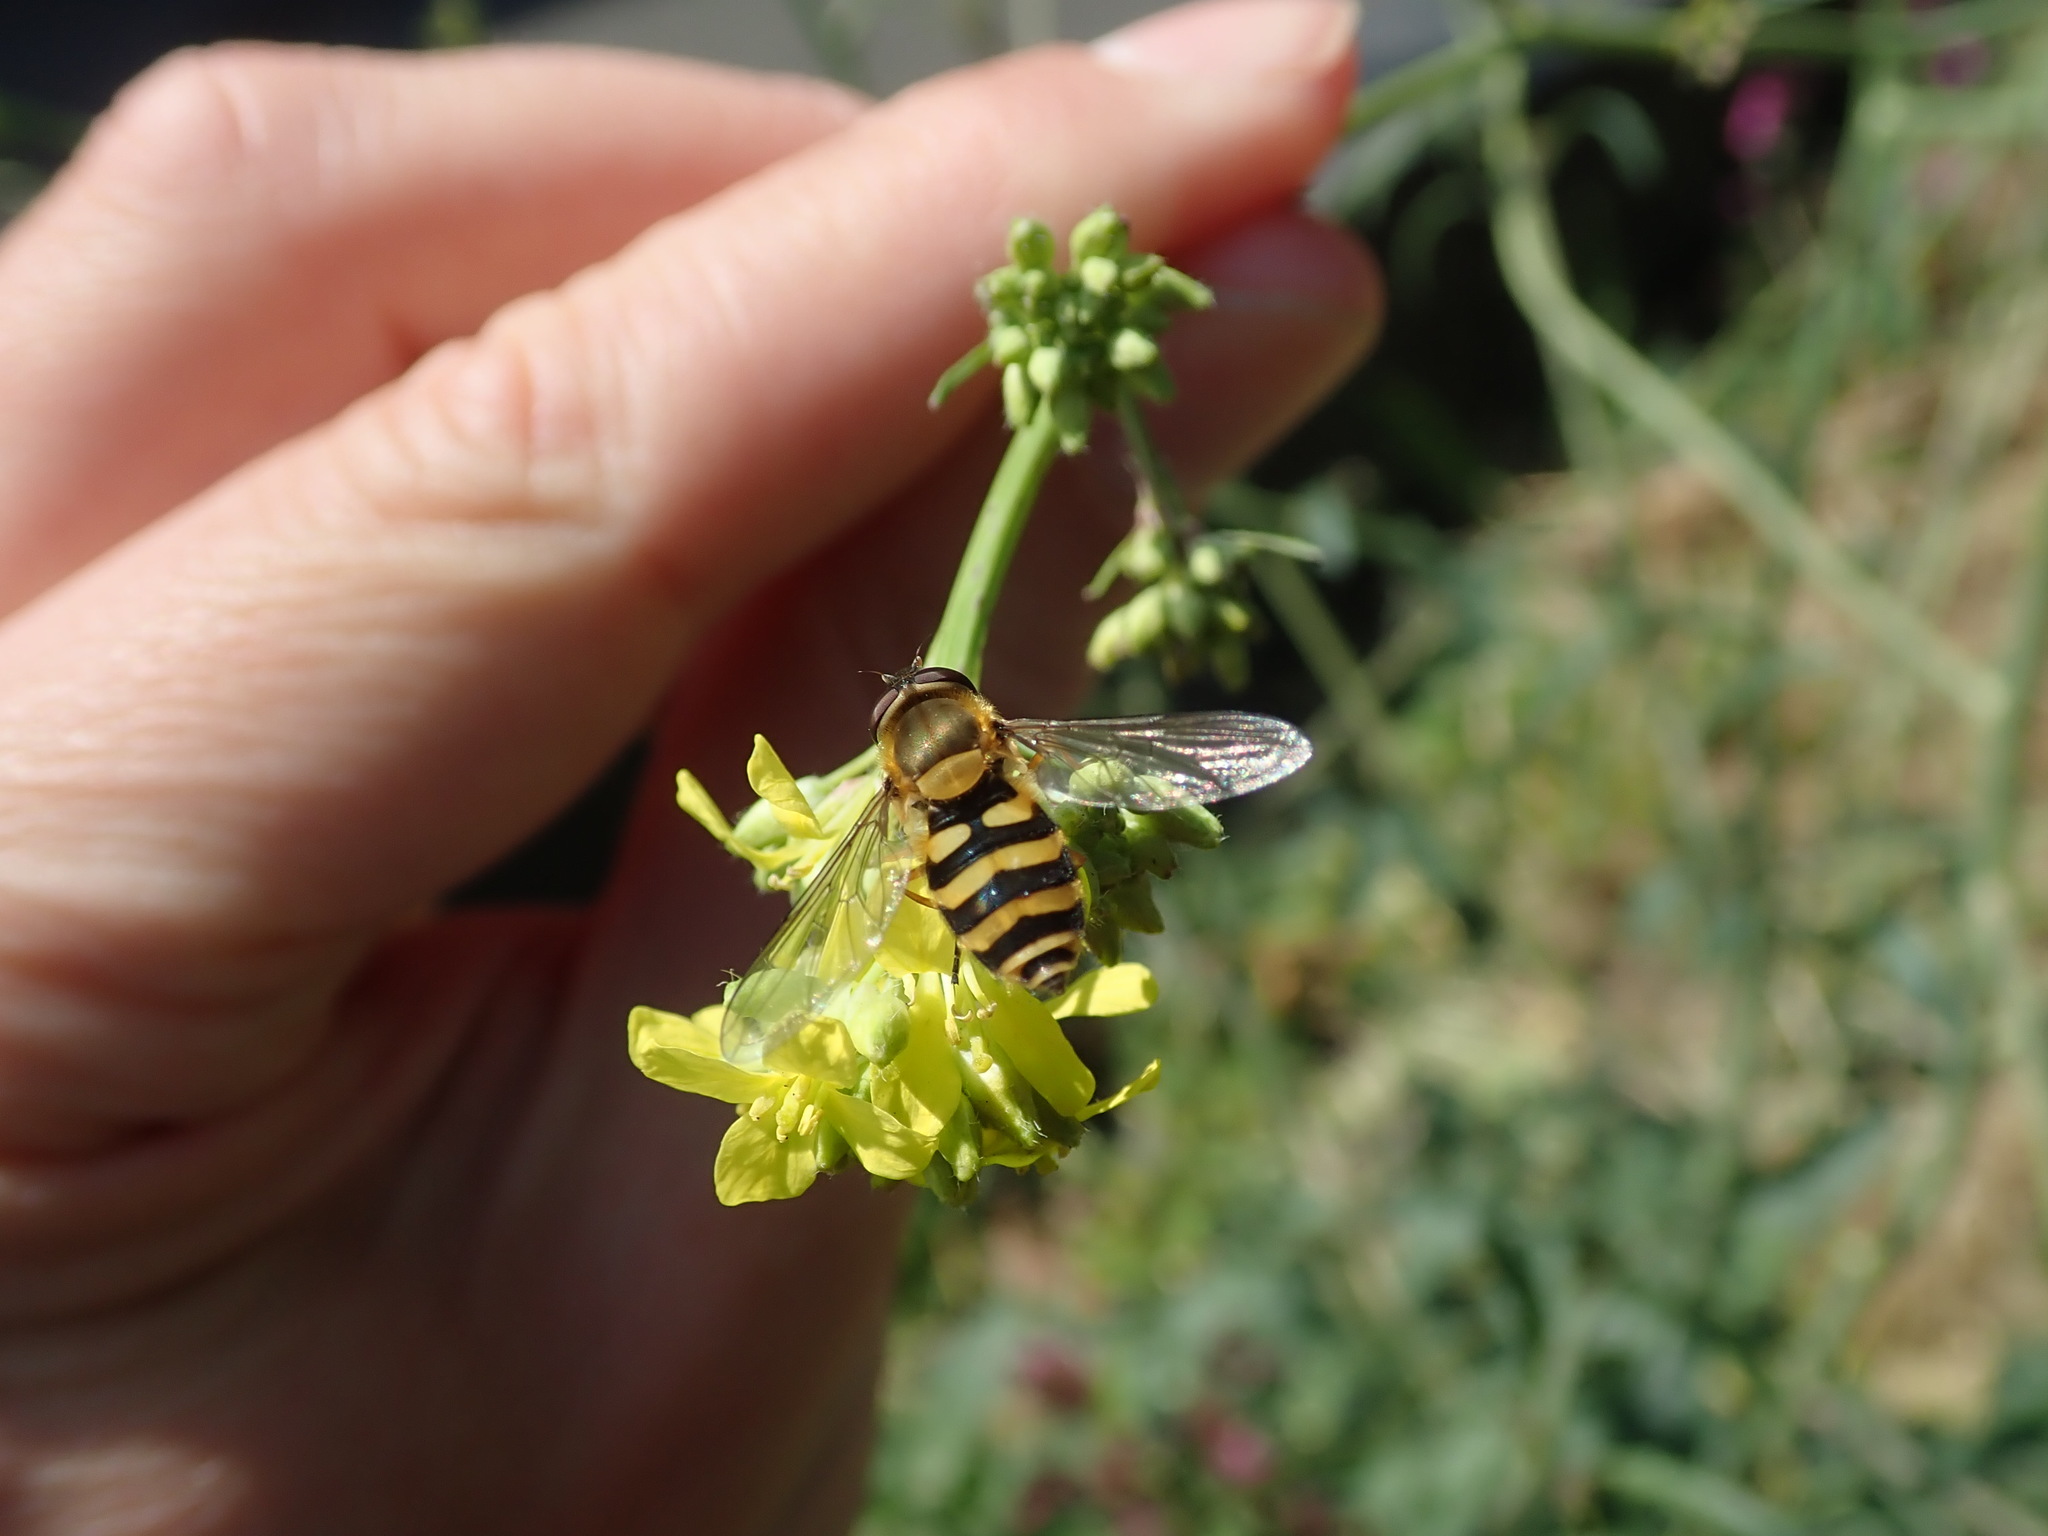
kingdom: Animalia
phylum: Arthropoda
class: Insecta
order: Diptera
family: Syrphidae
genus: Syrphus
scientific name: Syrphus
